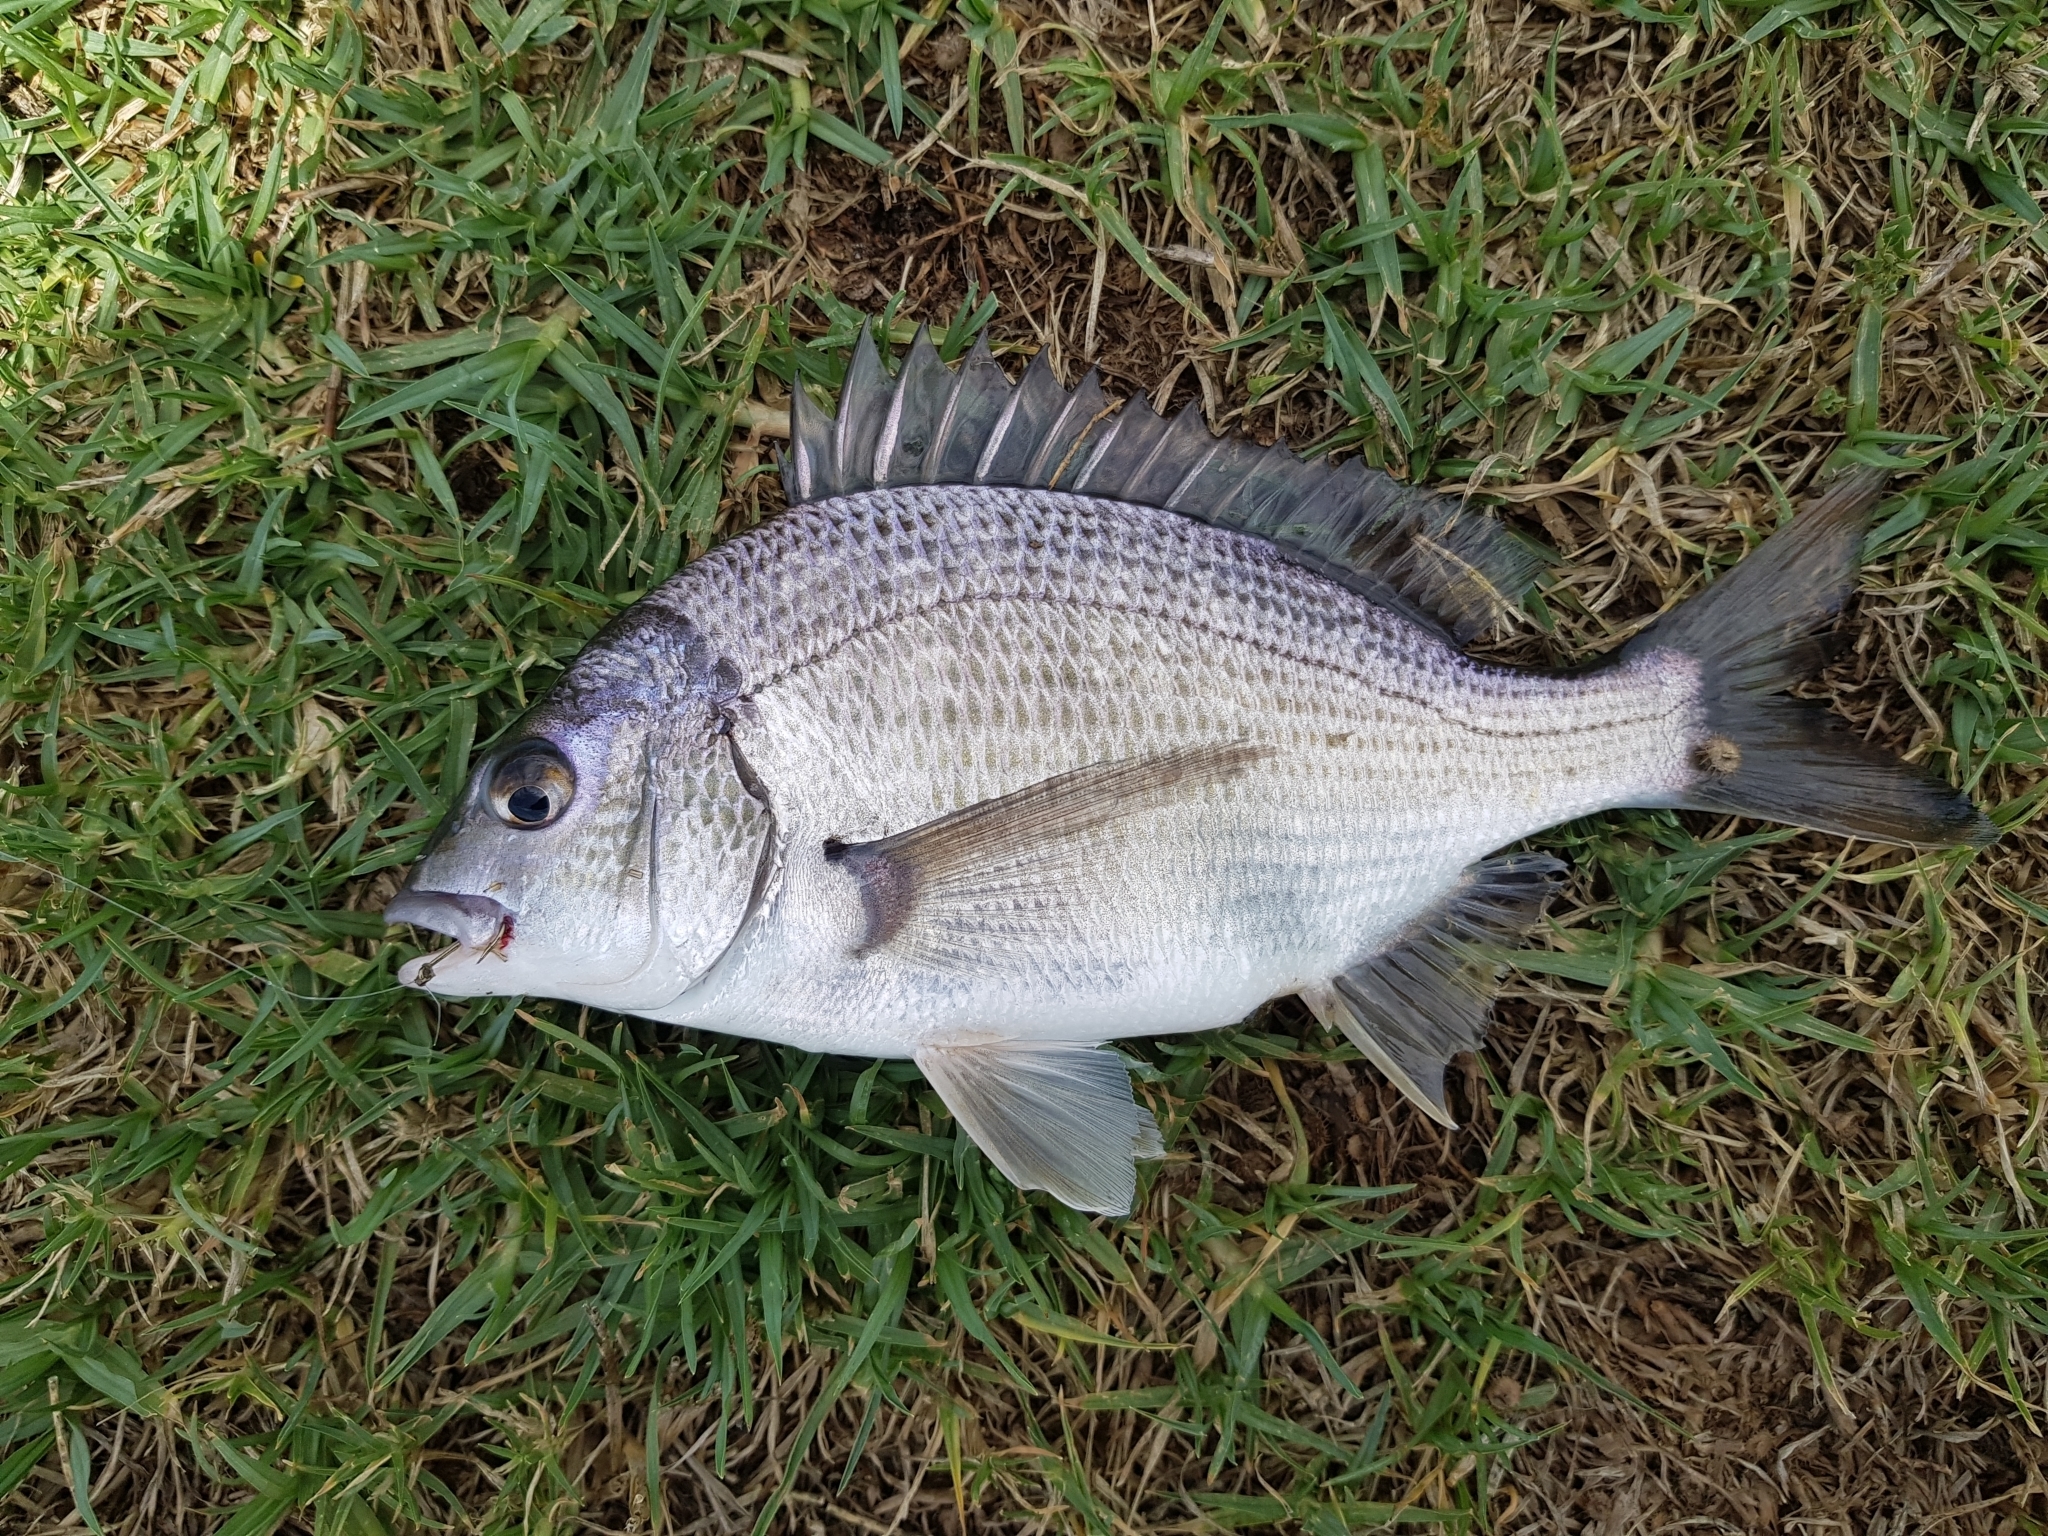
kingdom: Animalia
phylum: Chordata
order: Perciformes
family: Sparidae
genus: Acanthopagrus
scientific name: Acanthopagrus butcheri
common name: Black bream
